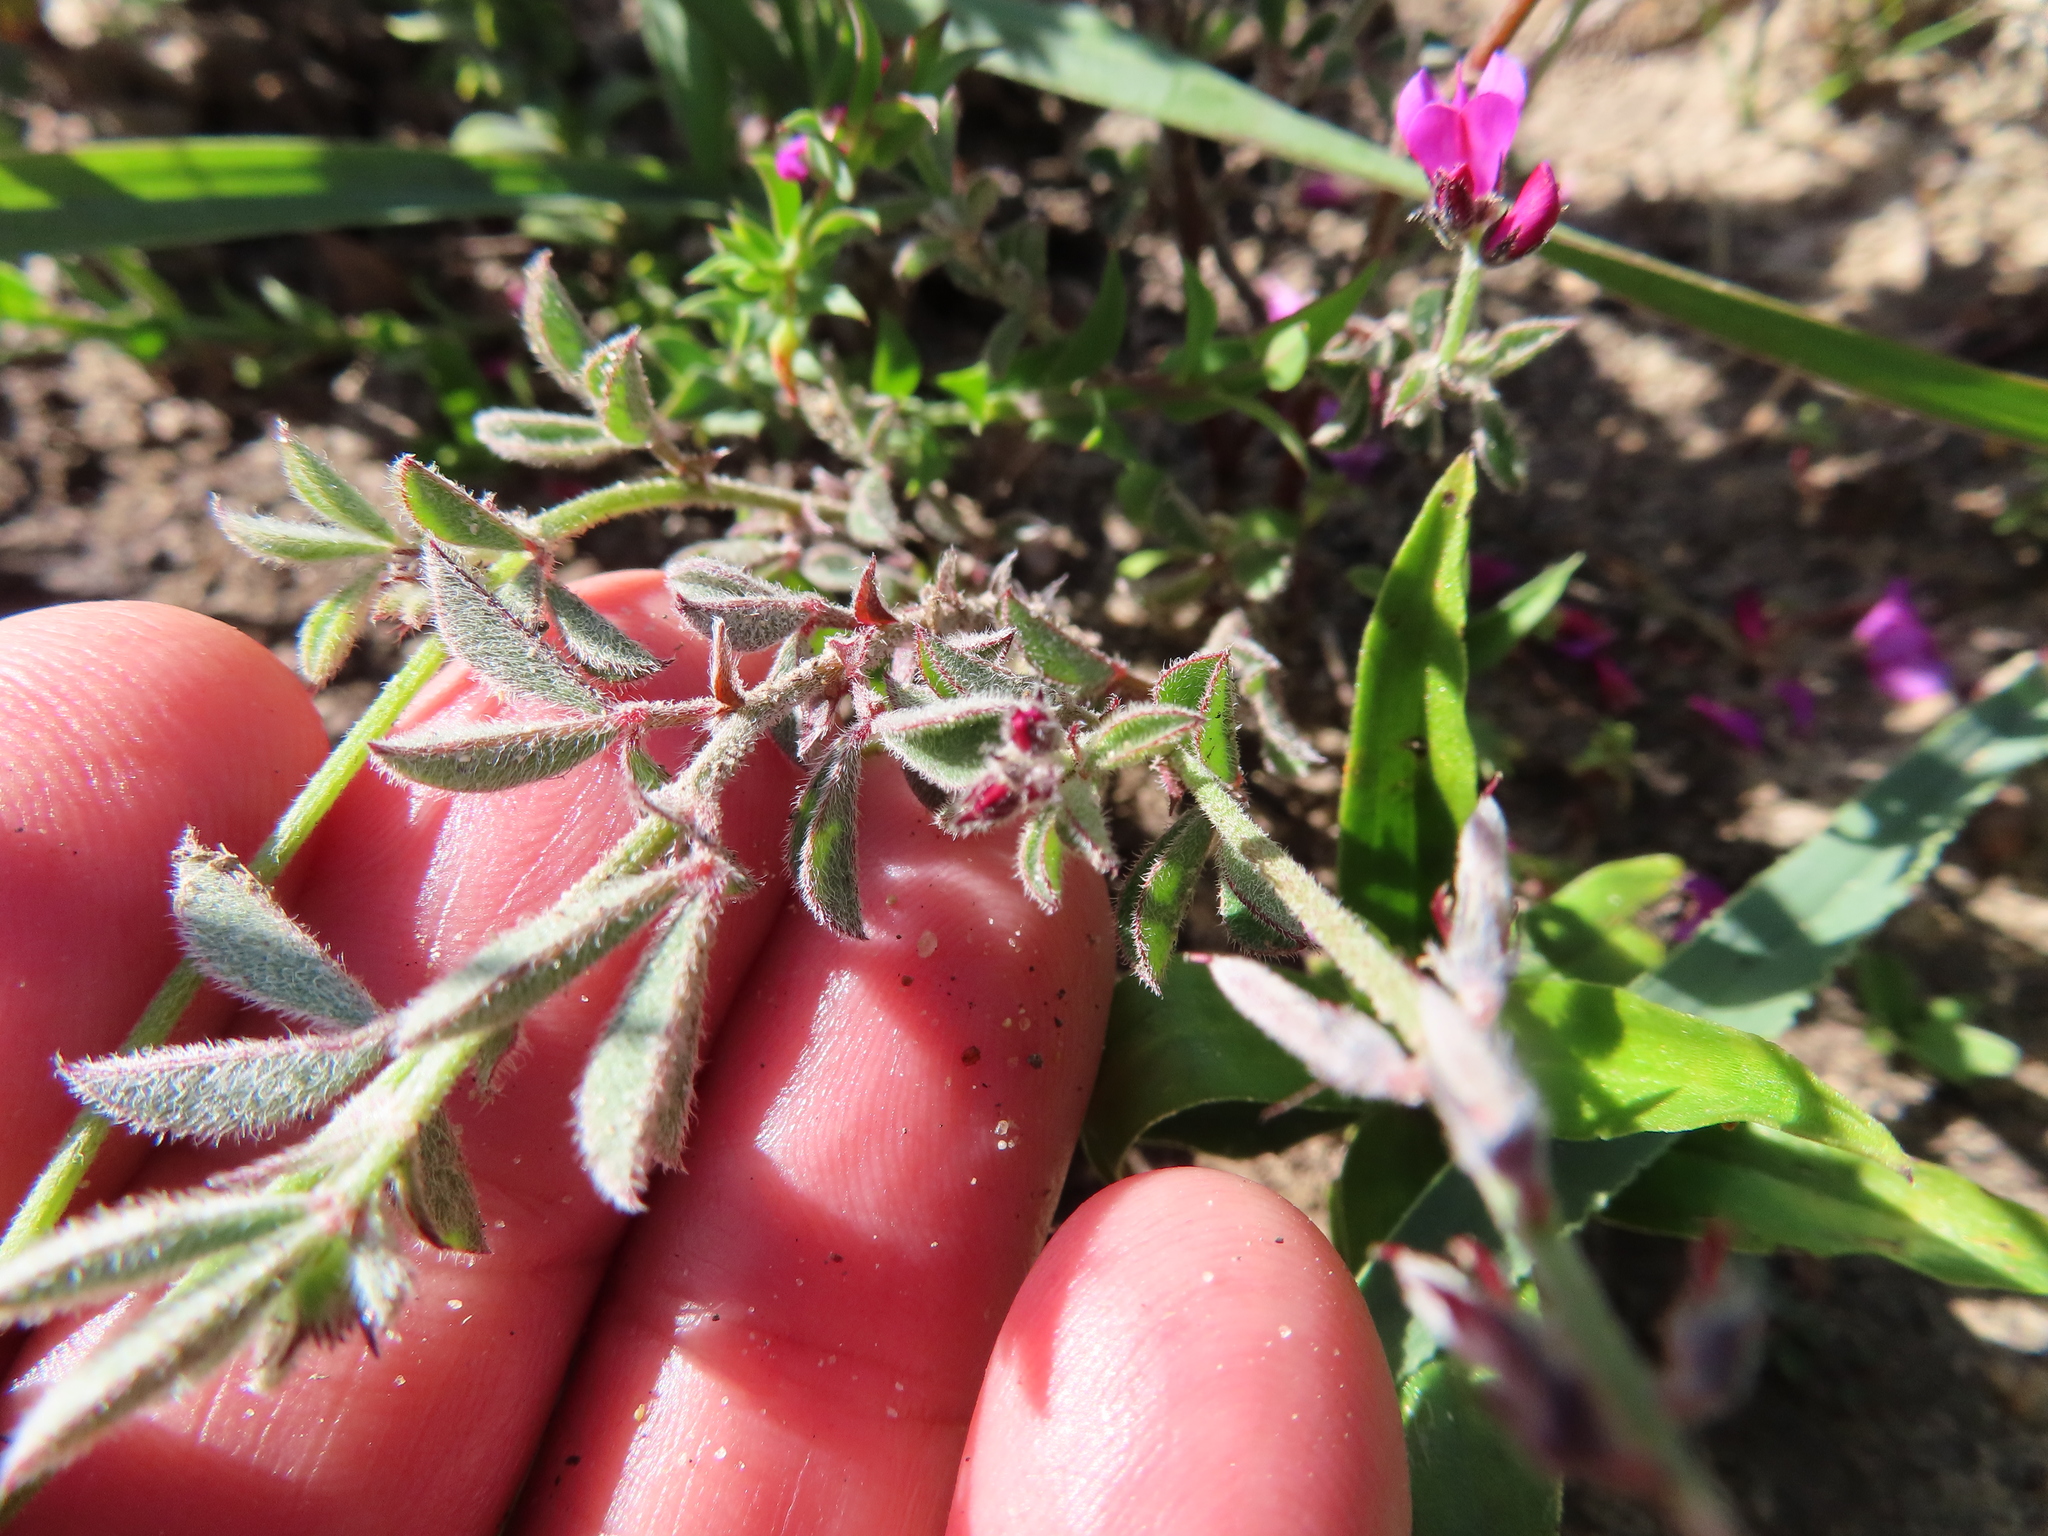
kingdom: Plantae
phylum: Tracheophyta
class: Magnoliopsida
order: Fabales
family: Fabaceae
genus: Indigofera
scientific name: Indigofera incana
